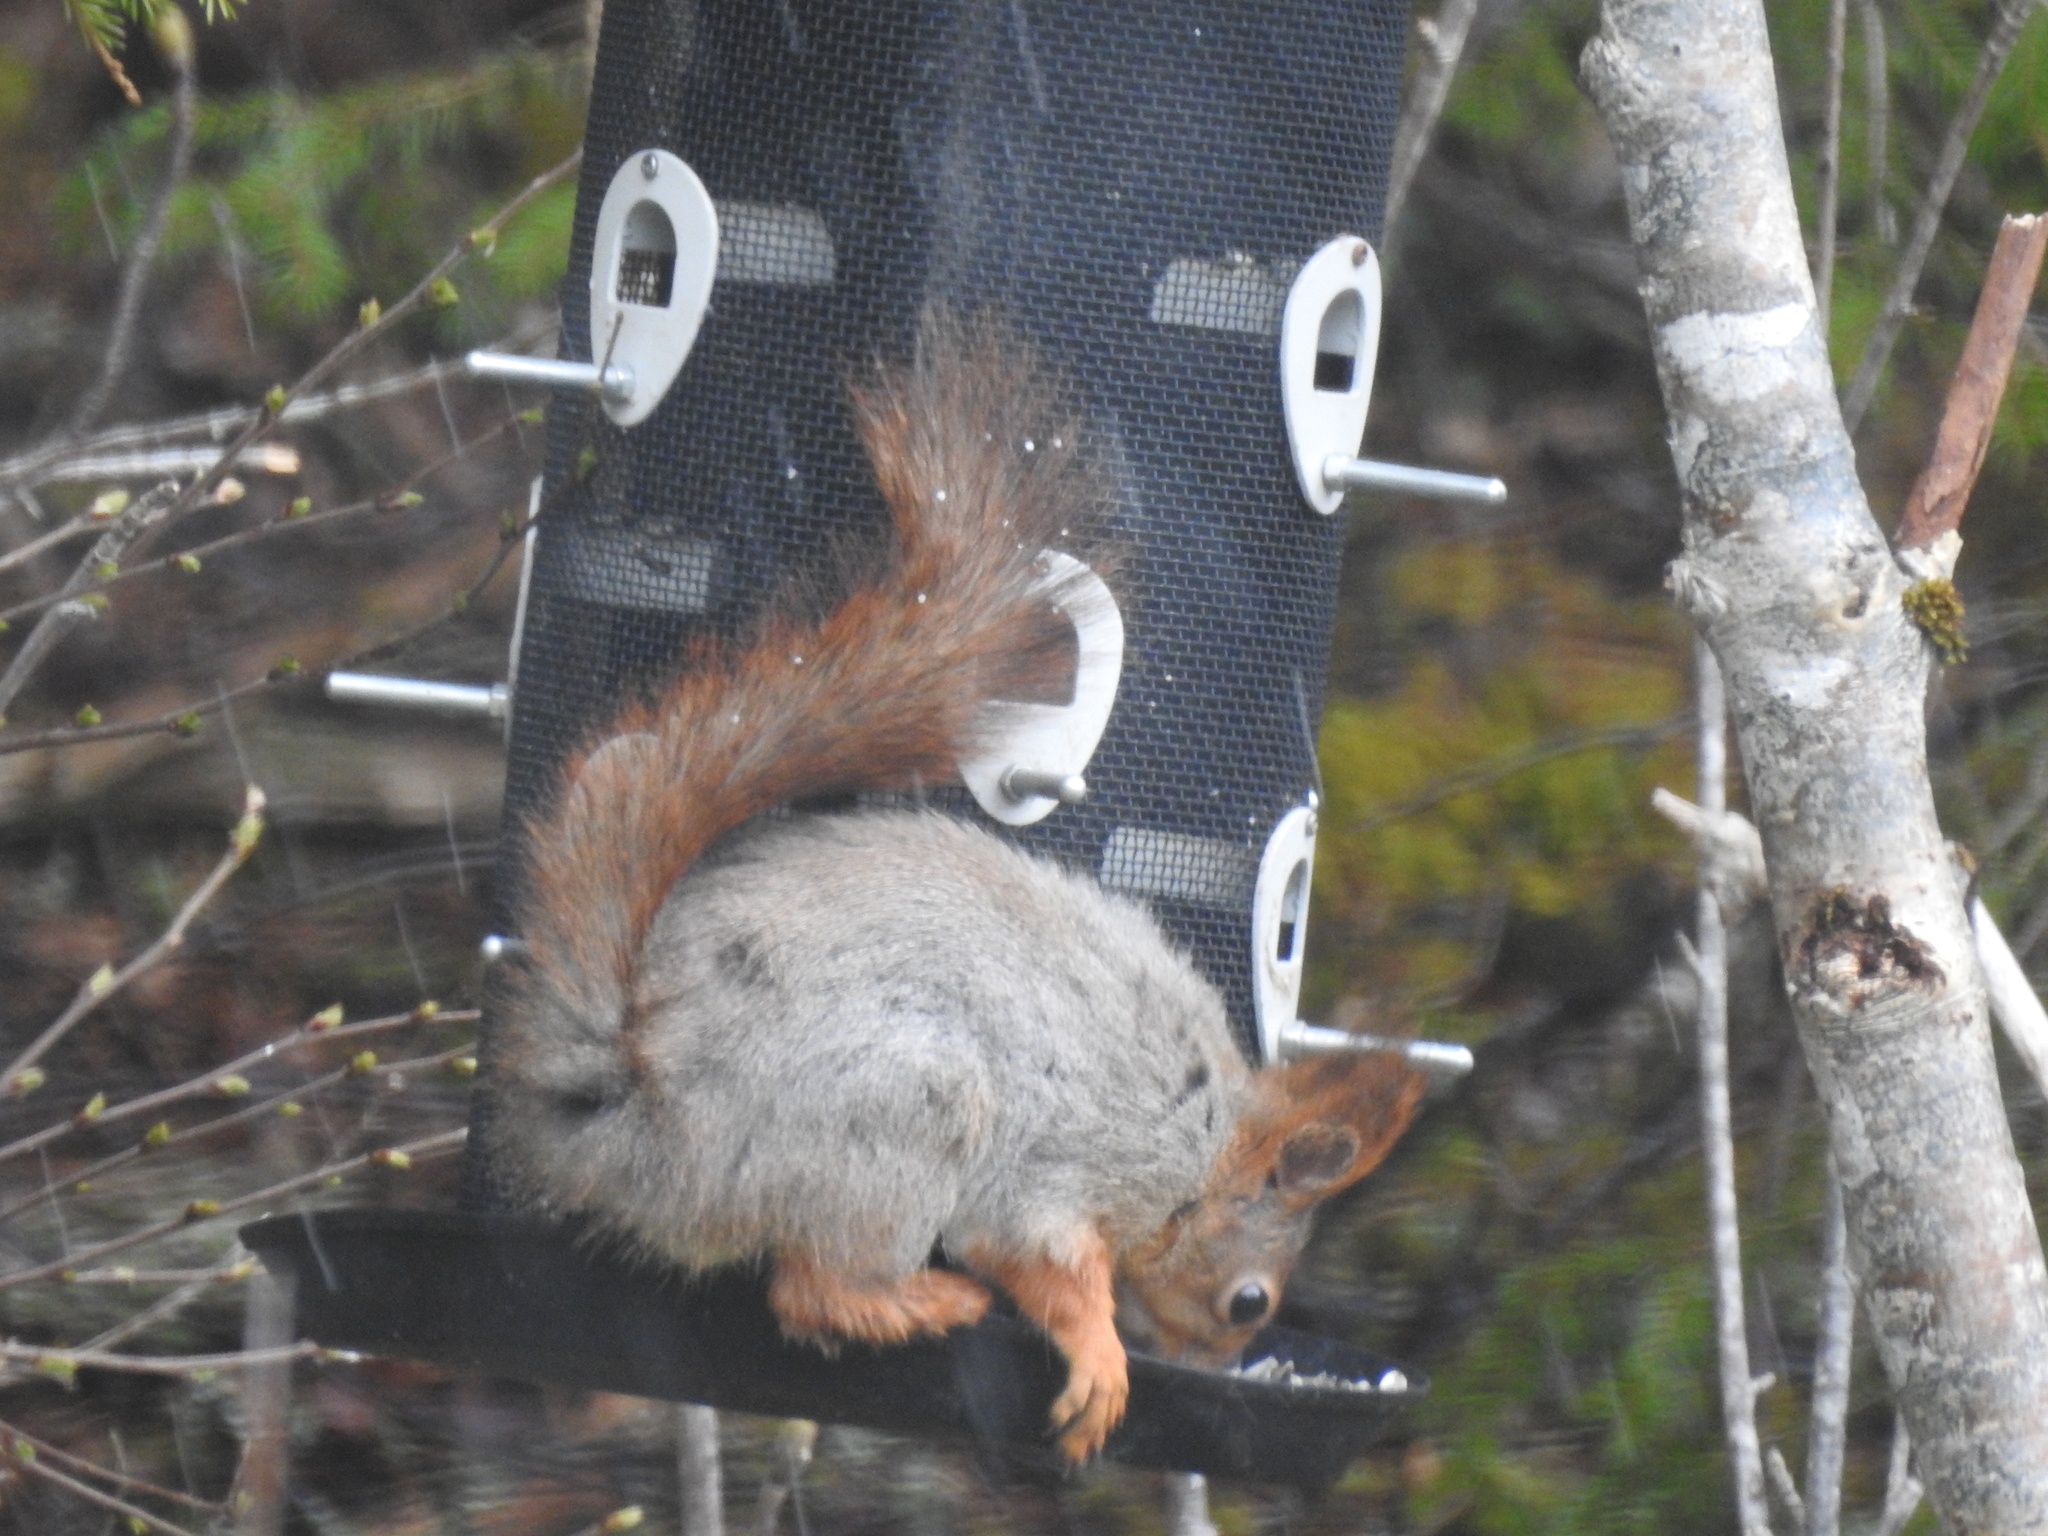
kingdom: Animalia
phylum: Chordata
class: Mammalia
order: Rodentia
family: Sciuridae
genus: Sciurus
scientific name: Sciurus vulgaris
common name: Eurasian red squirrel
